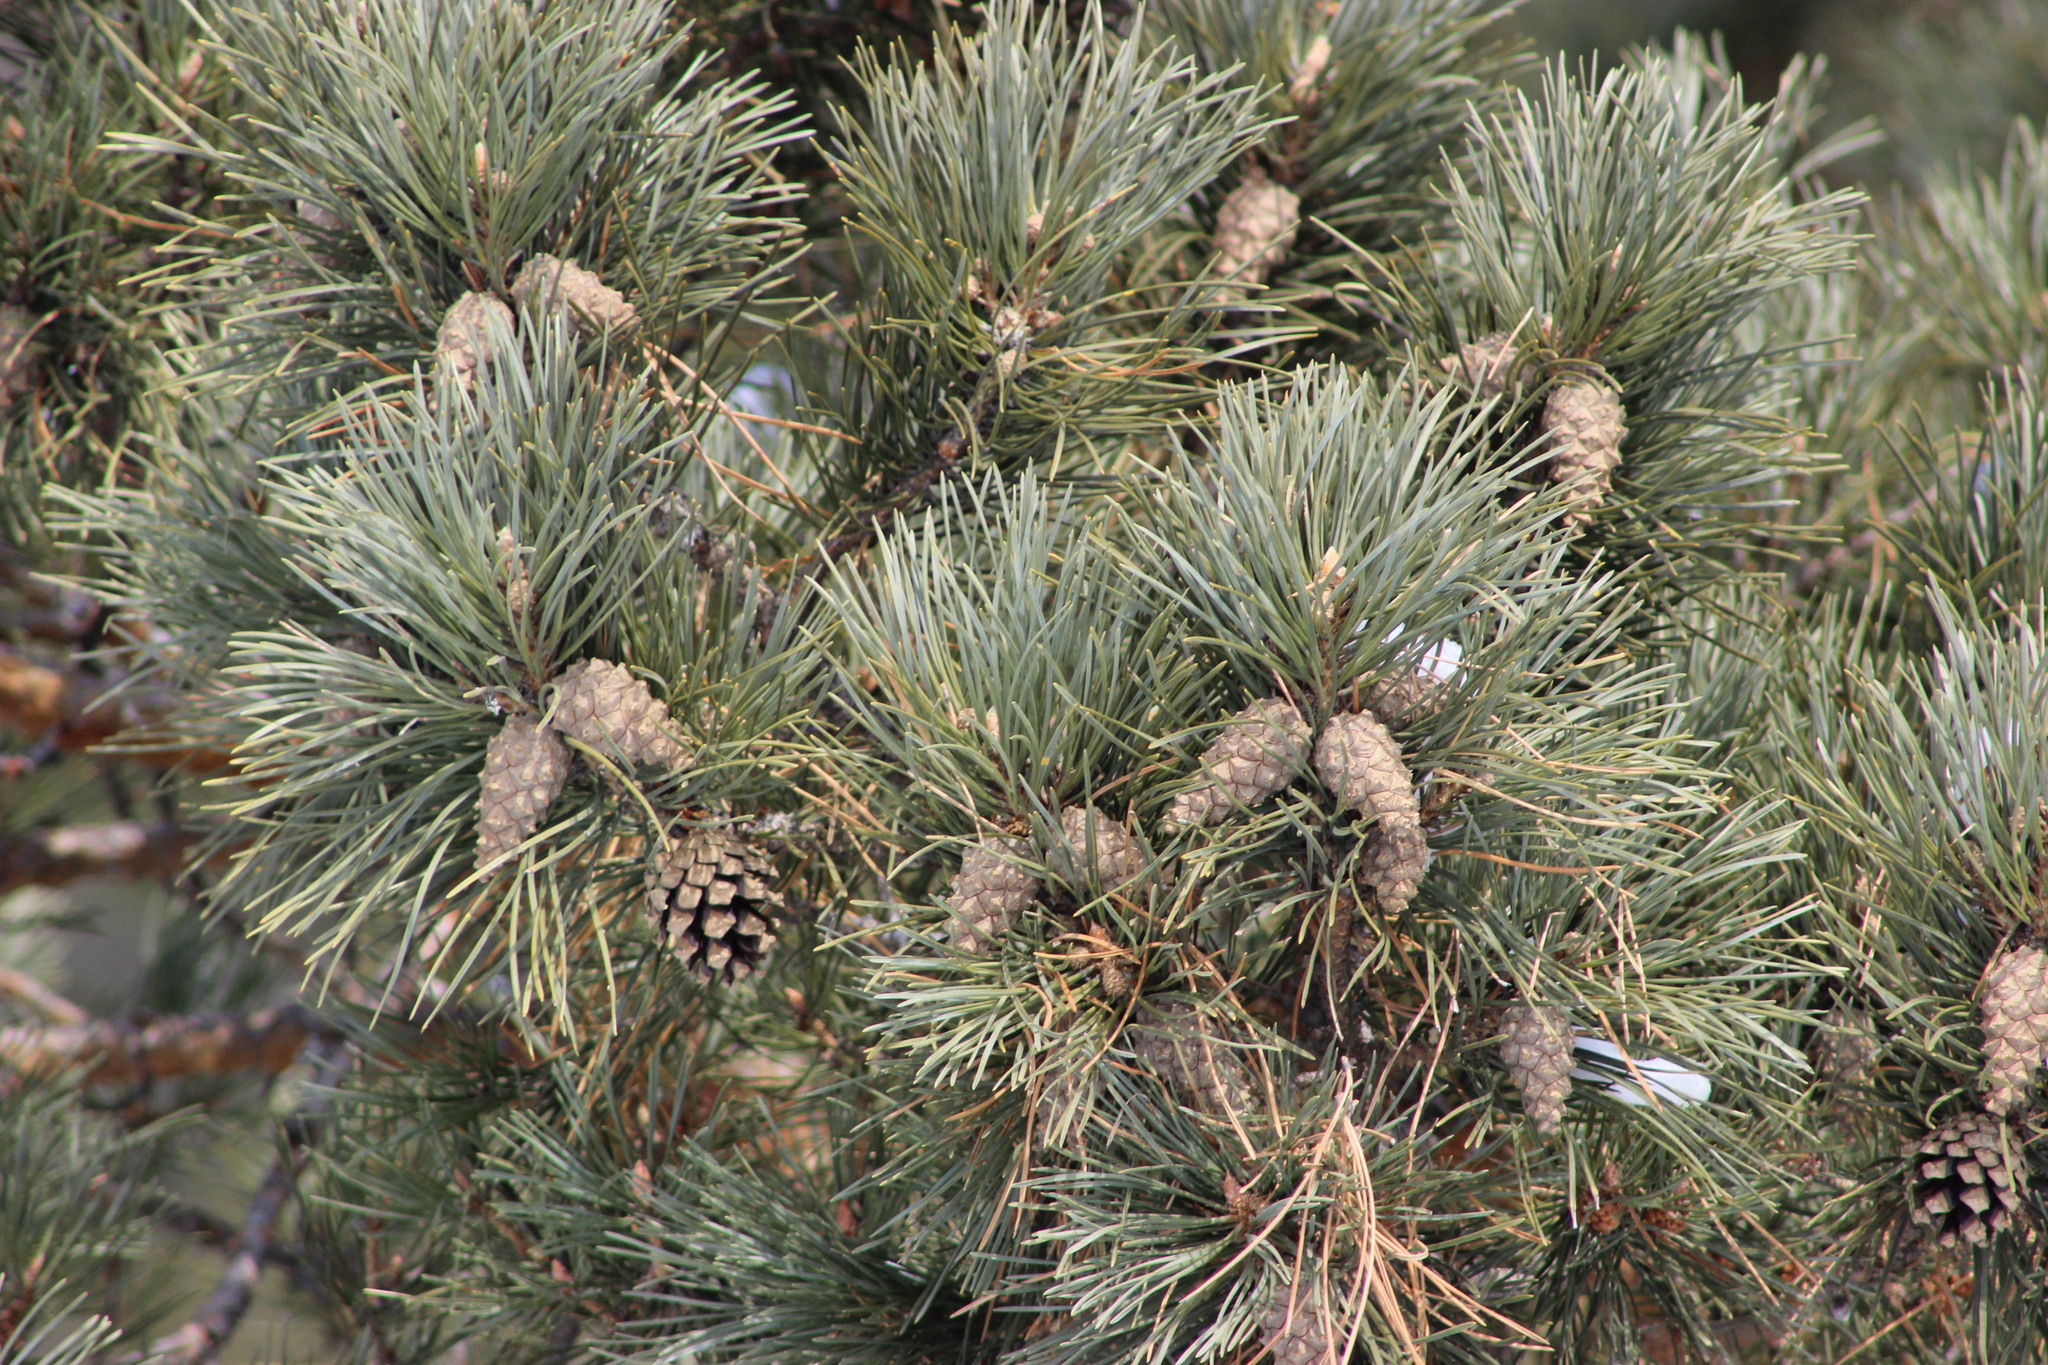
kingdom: Plantae
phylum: Tracheophyta
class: Pinopsida
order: Pinales
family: Pinaceae
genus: Pinus
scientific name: Pinus sylvestris
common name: Scots pine
